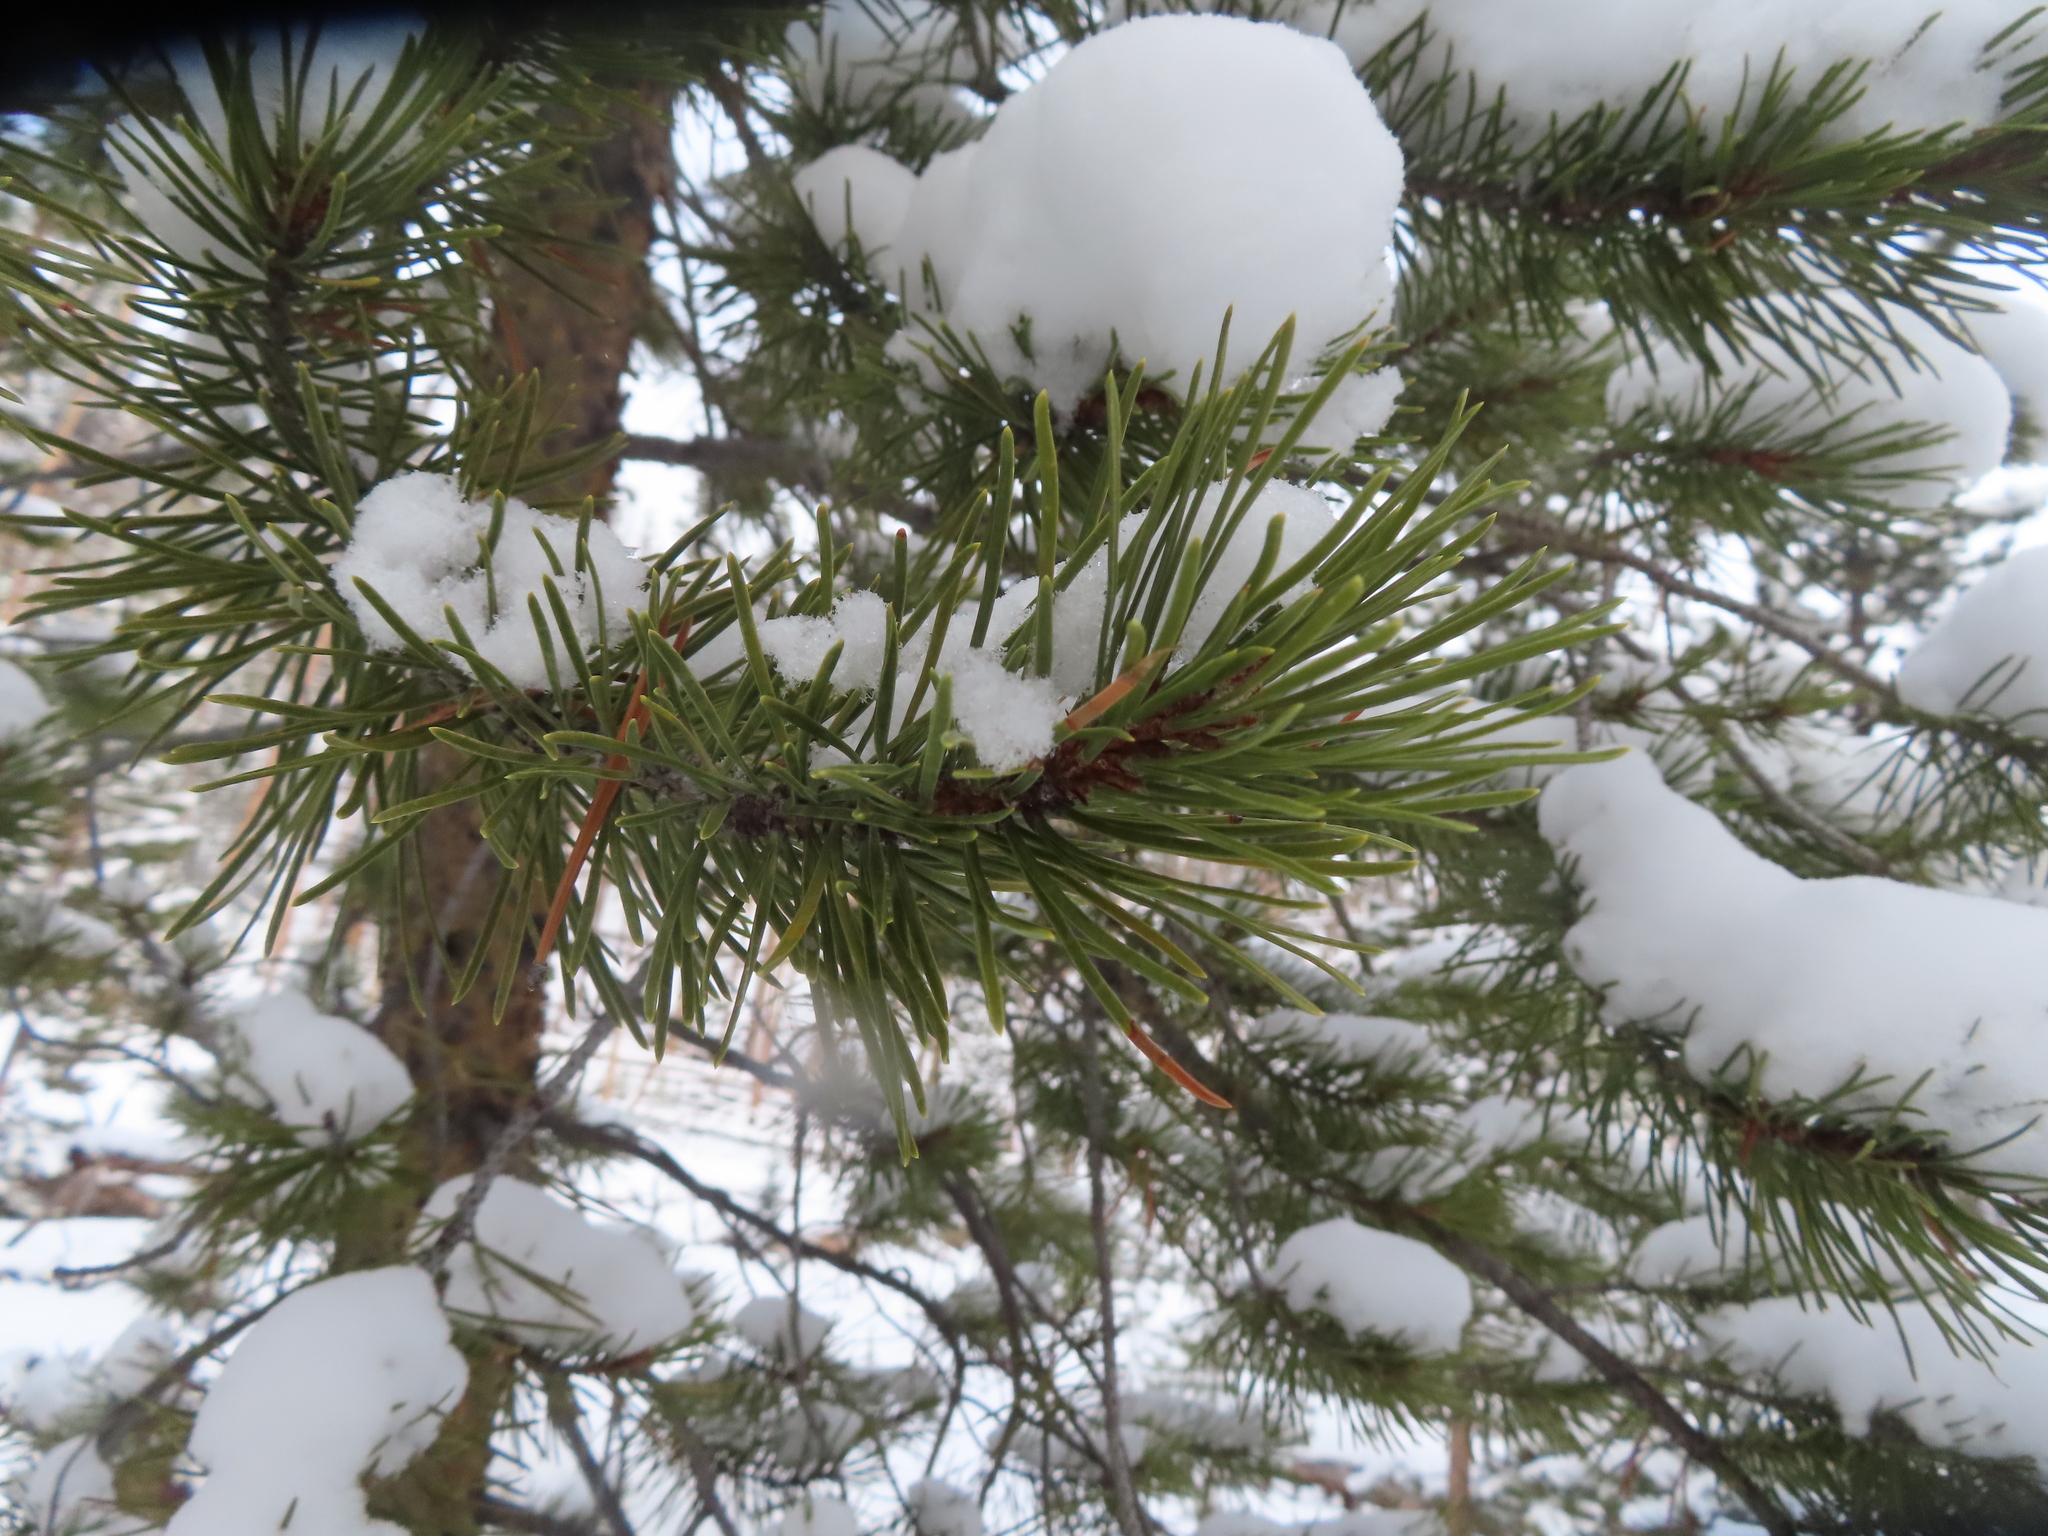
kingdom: Plantae
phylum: Tracheophyta
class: Pinopsida
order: Pinales
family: Pinaceae
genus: Pinus
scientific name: Pinus contorta
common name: Lodgepole pine
